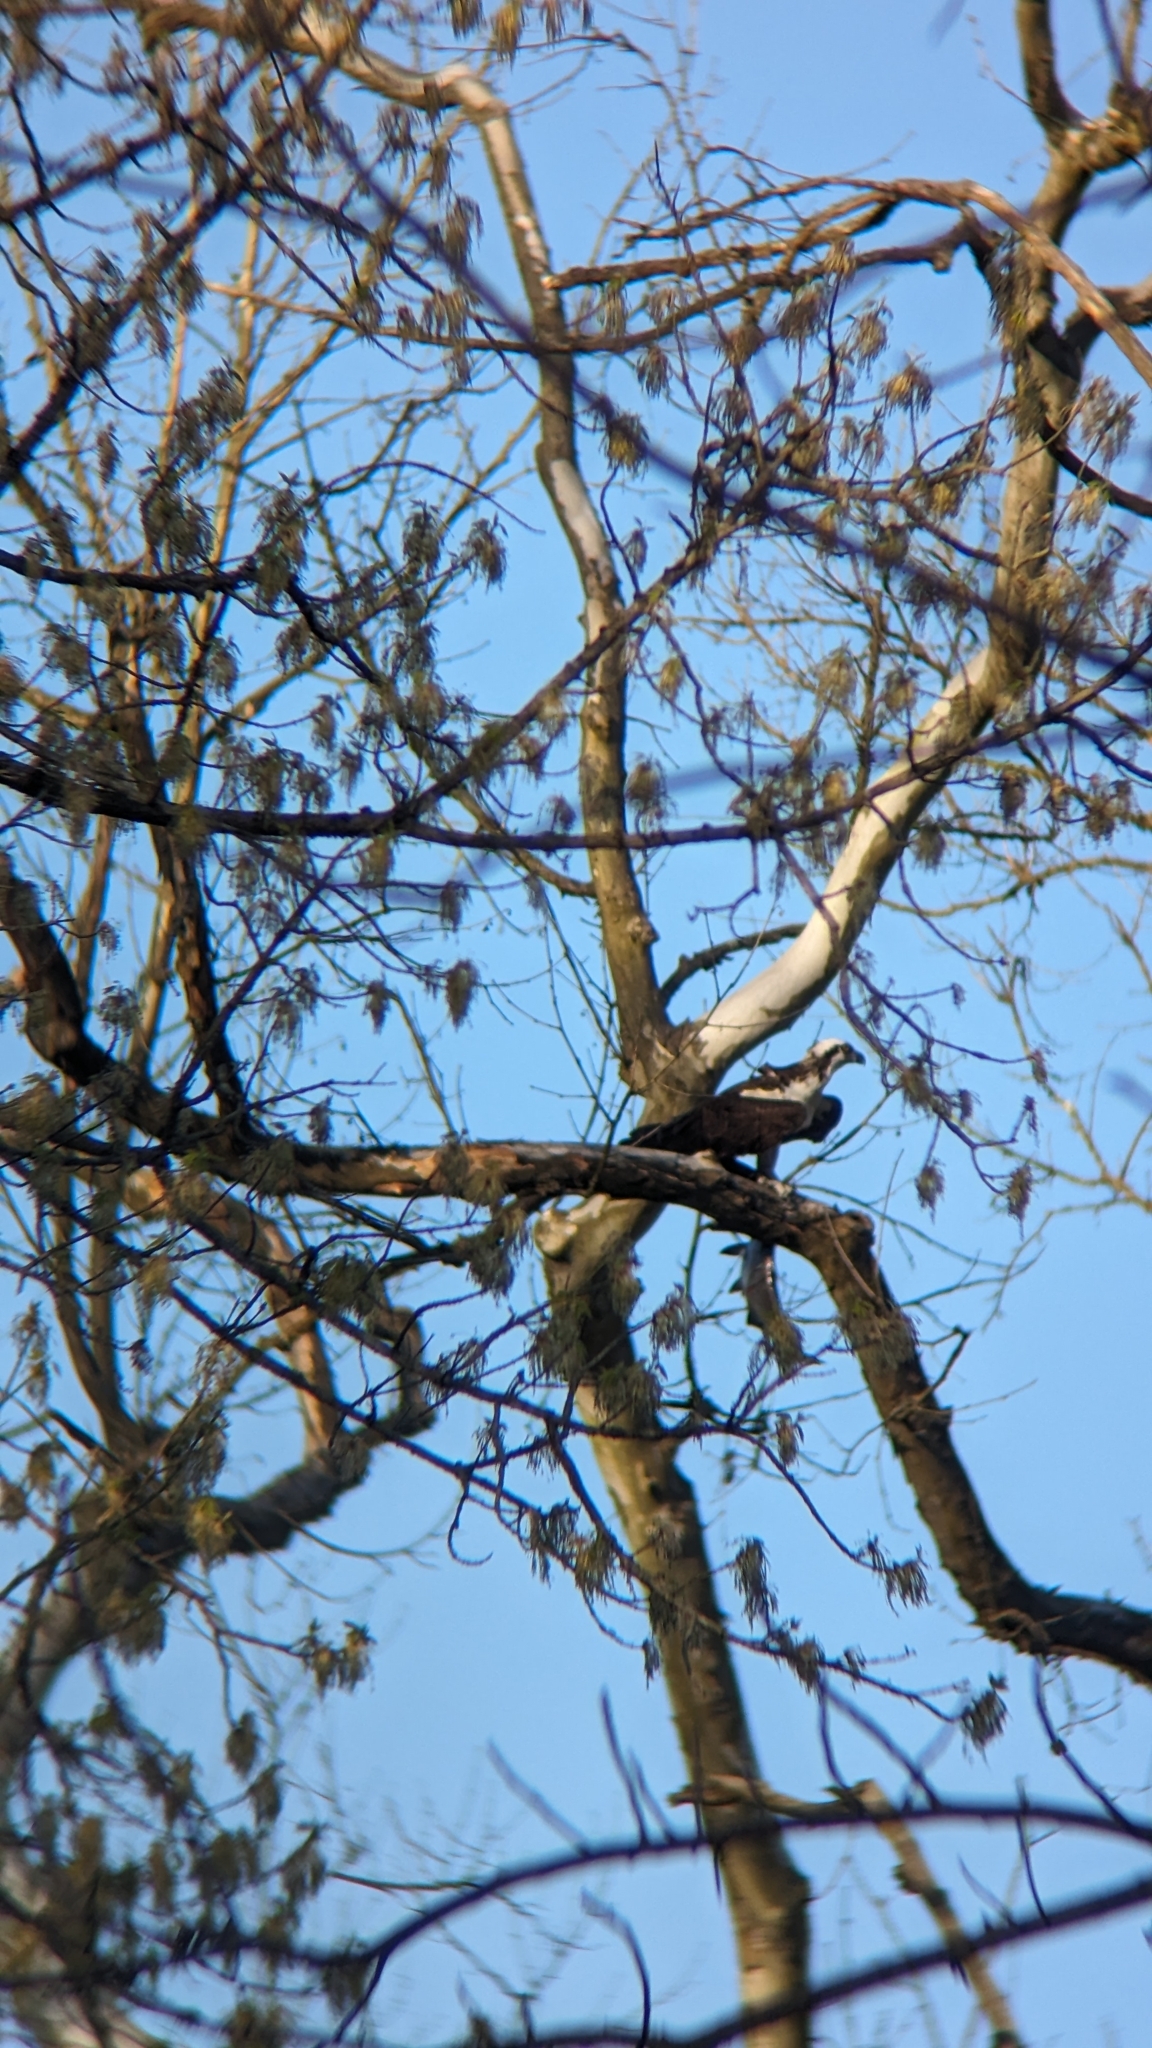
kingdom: Animalia
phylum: Chordata
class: Aves
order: Accipitriformes
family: Pandionidae
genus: Pandion
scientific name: Pandion haliaetus
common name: Osprey
